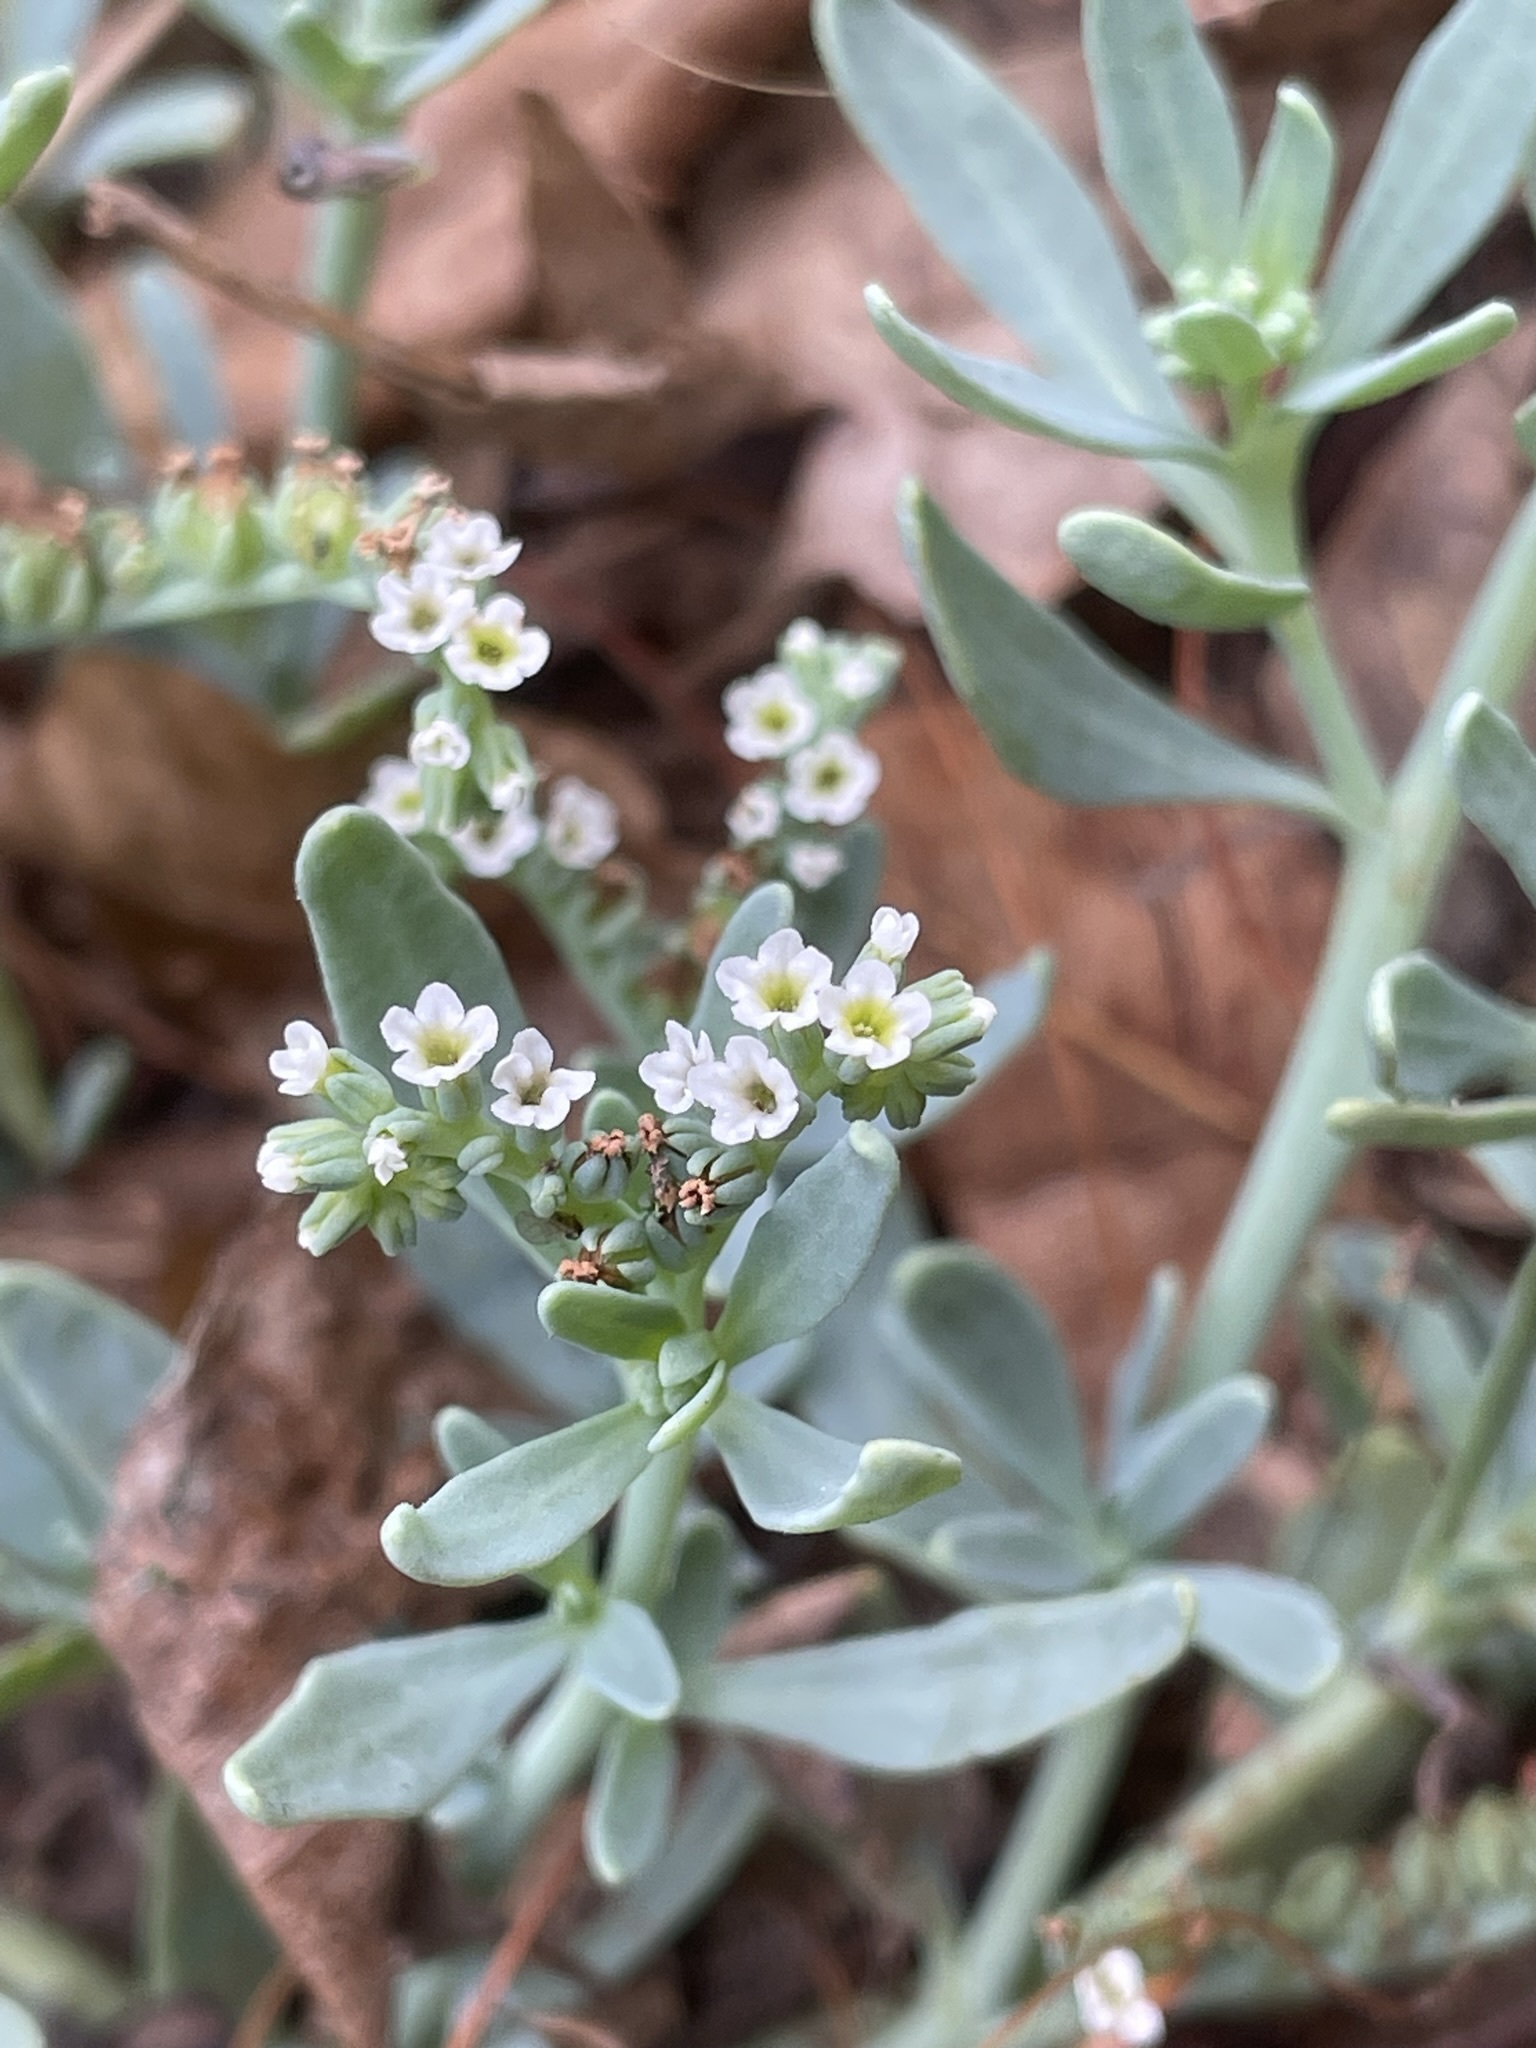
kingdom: Plantae
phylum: Tracheophyta
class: Magnoliopsida
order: Boraginales
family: Heliotropiaceae
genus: Heliotropium
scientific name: Heliotropium curassavicum
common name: Seaside heliotrope
